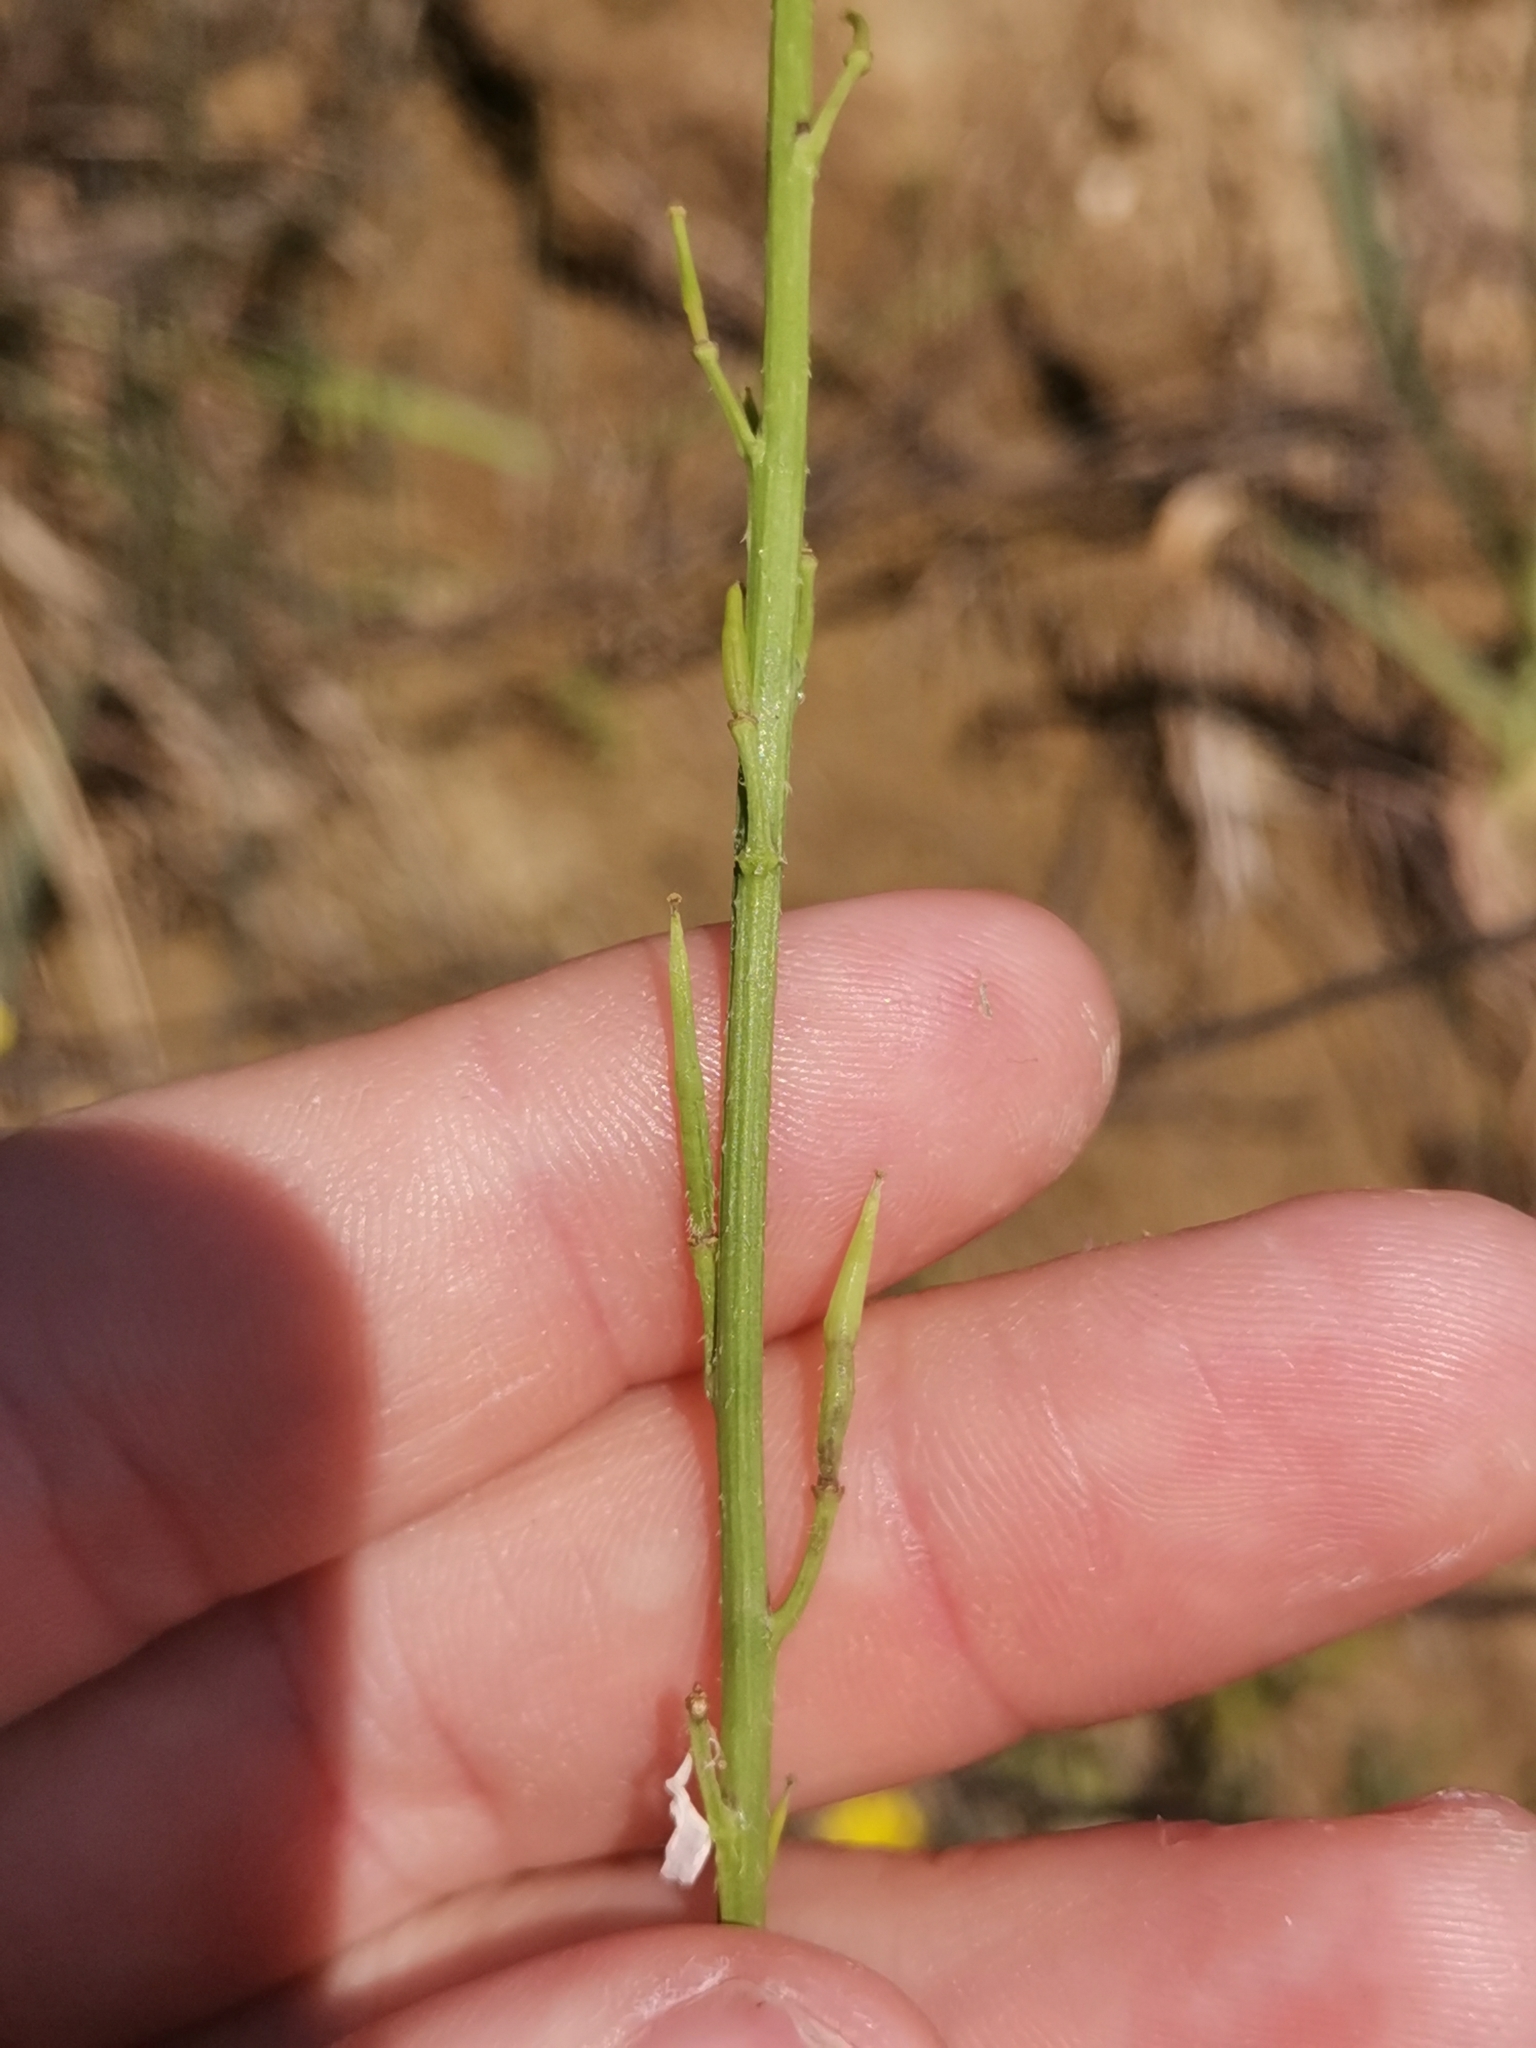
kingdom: Plantae
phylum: Tracheophyta
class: Magnoliopsida
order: Brassicales
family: Brassicaceae
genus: Sinapis
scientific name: Sinapis arvensis
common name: Charlock
